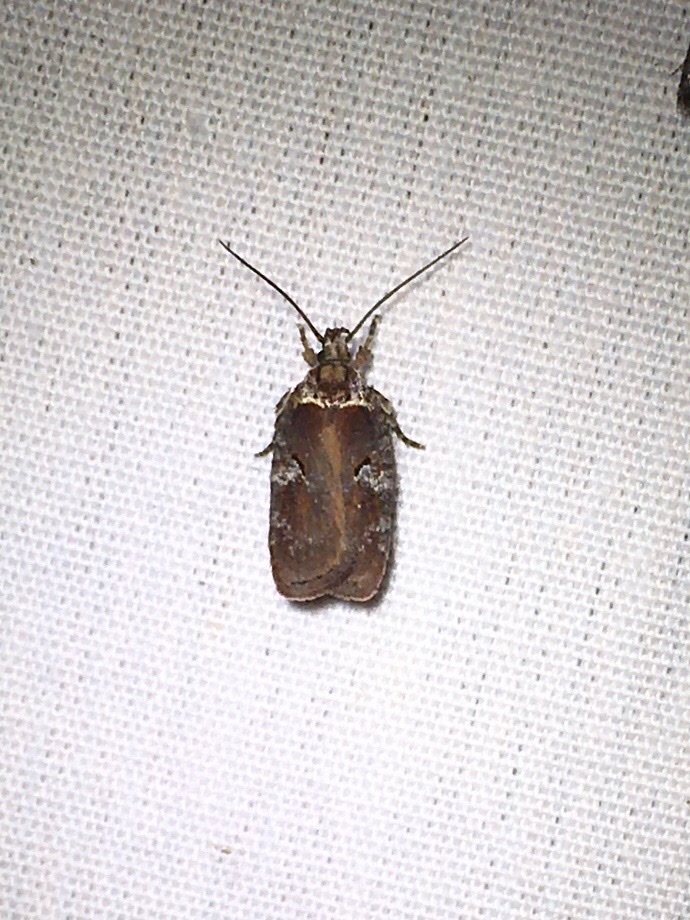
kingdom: Animalia
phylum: Arthropoda
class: Insecta
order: Lepidoptera
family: Depressariidae
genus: Agonopterix
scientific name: Agonopterix lythrella
